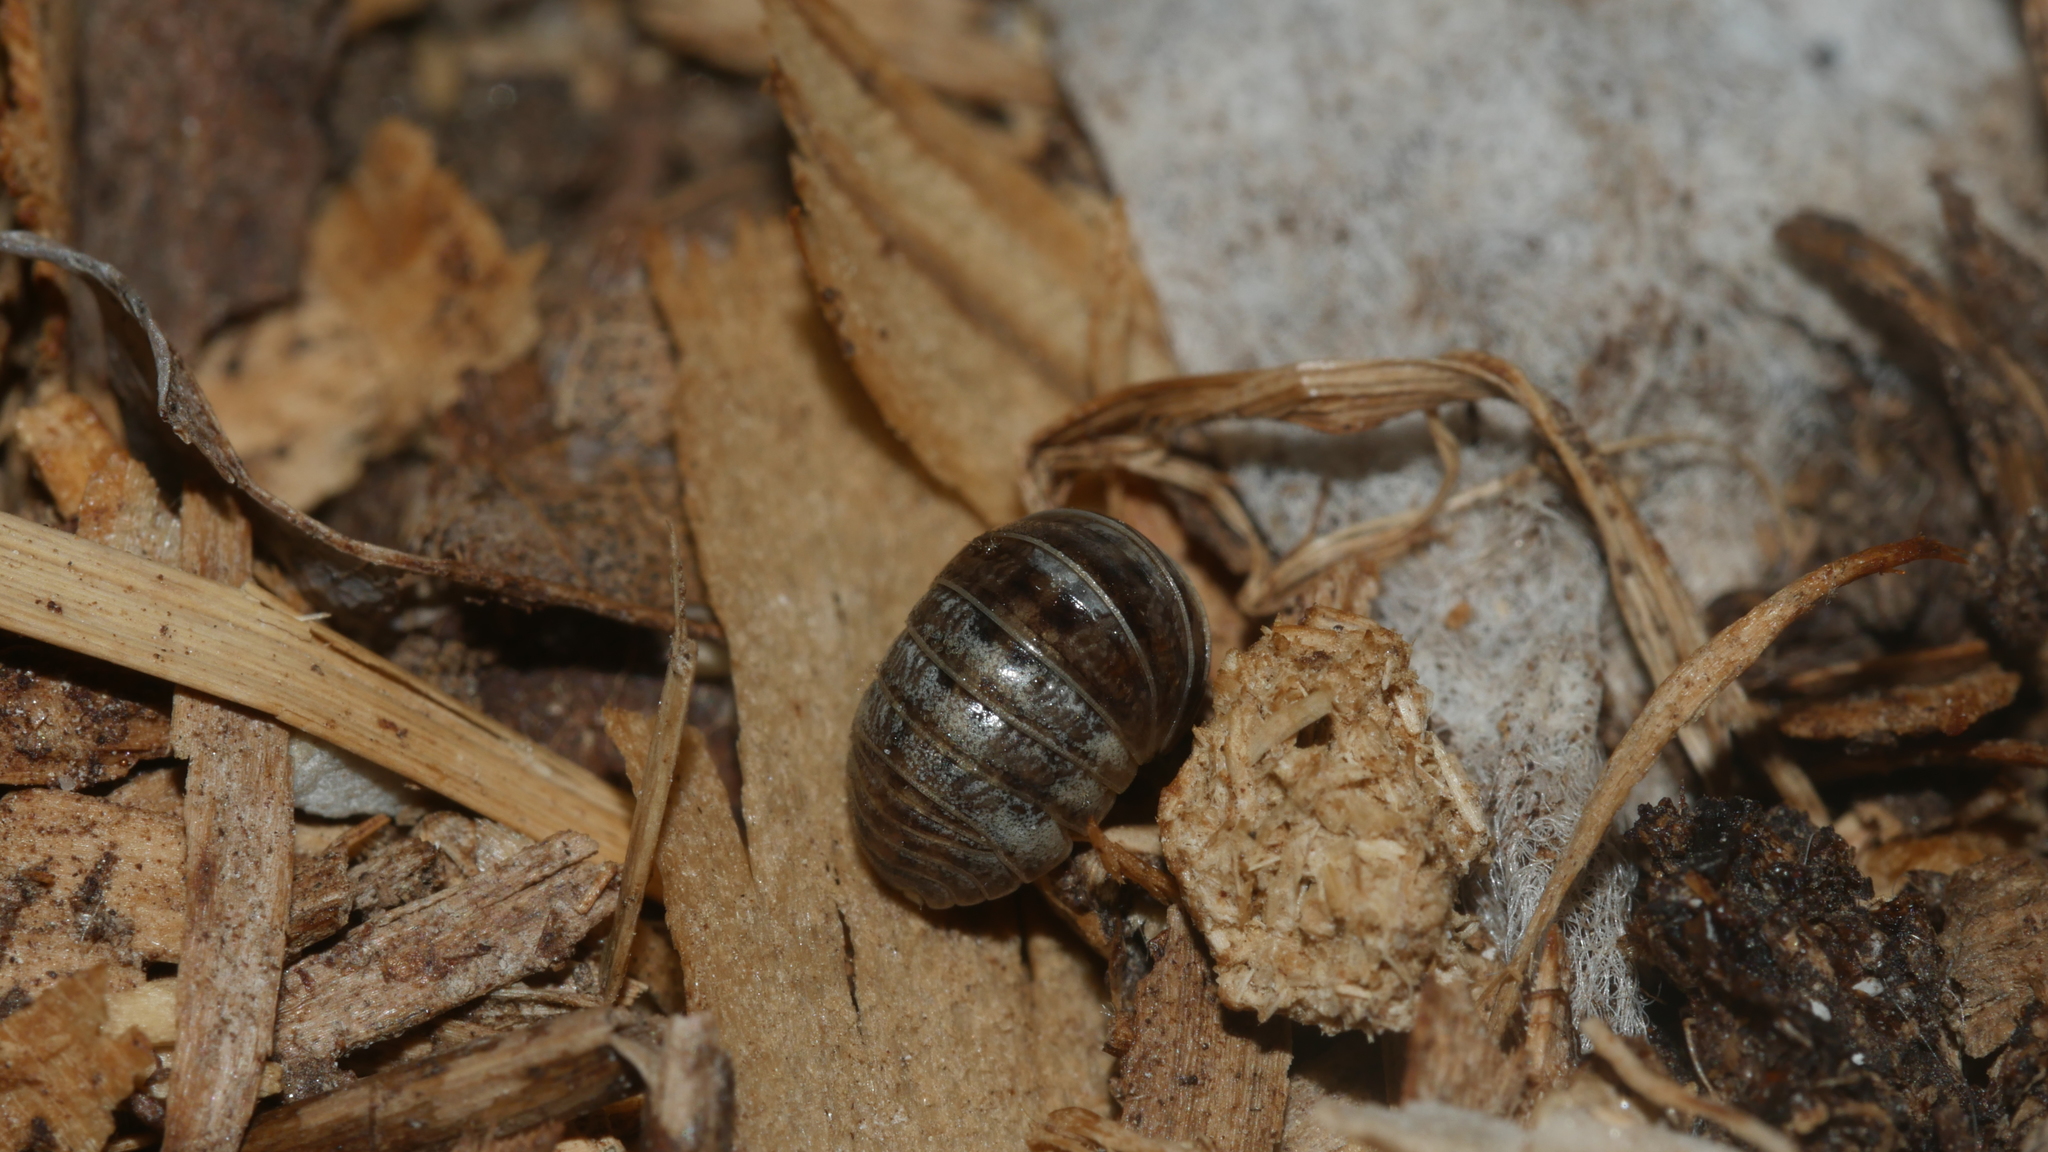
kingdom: Animalia
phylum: Arthropoda
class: Malacostraca
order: Isopoda
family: Armadillidiidae
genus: Armadillidium
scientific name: Armadillidium vulgare
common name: Common pill woodlouse
